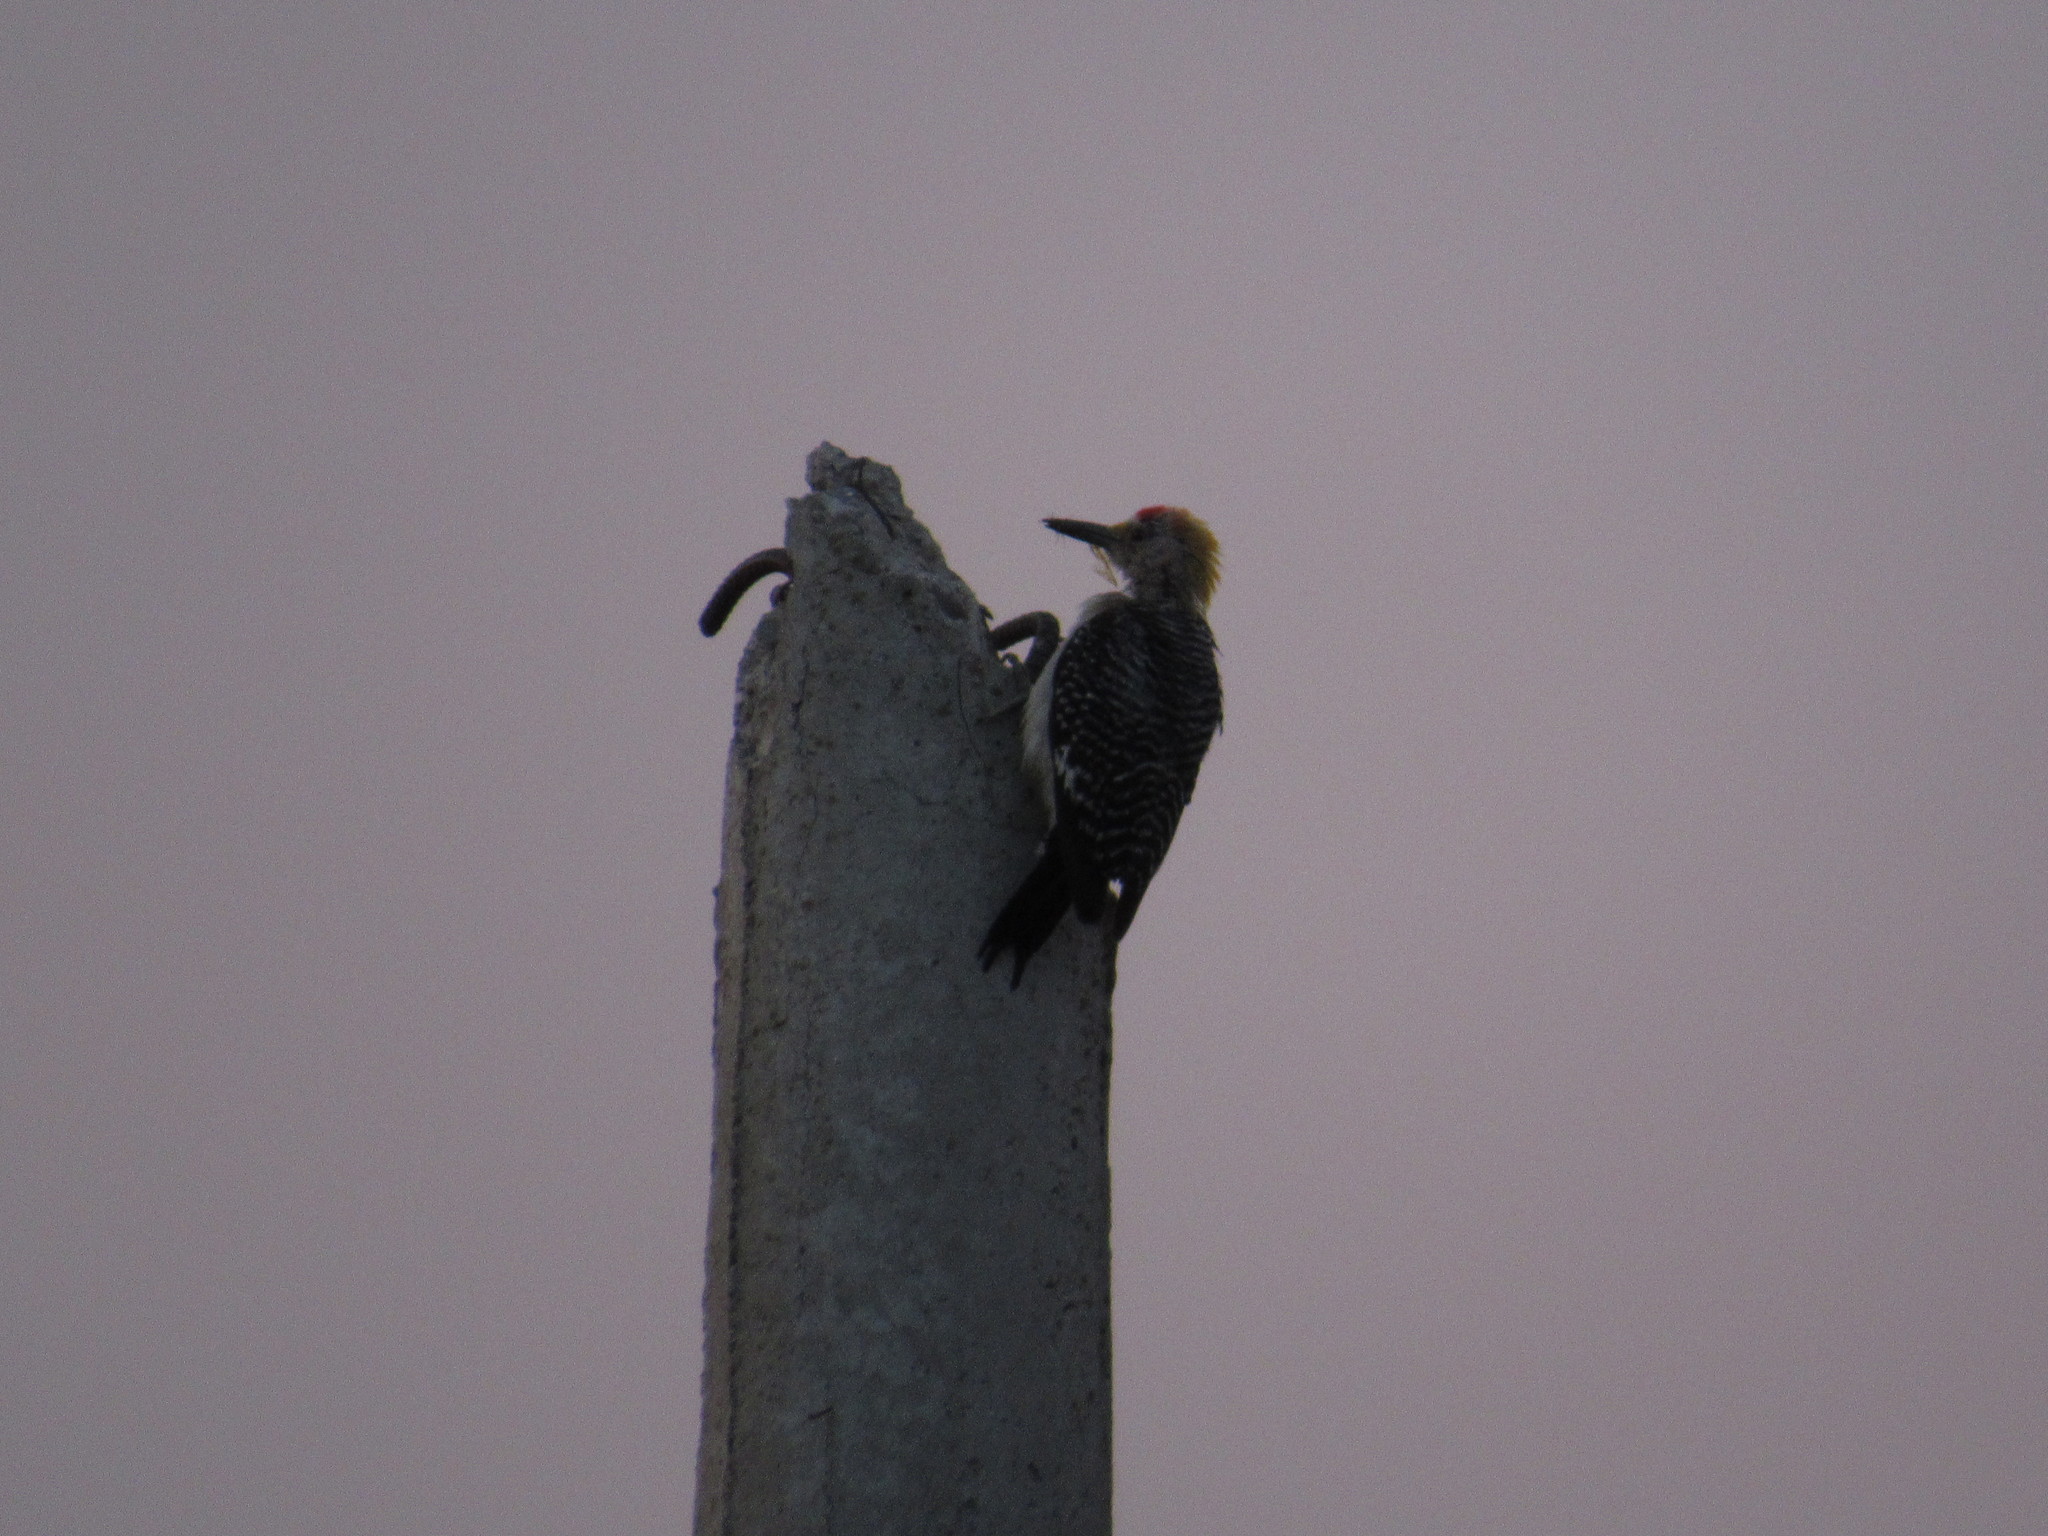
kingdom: Animalia
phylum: Chordata
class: Aves
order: Piciformes
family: Picidae
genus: Melanerpes
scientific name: Melanerpes aurifrons
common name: Golden-fronted woodpecker
